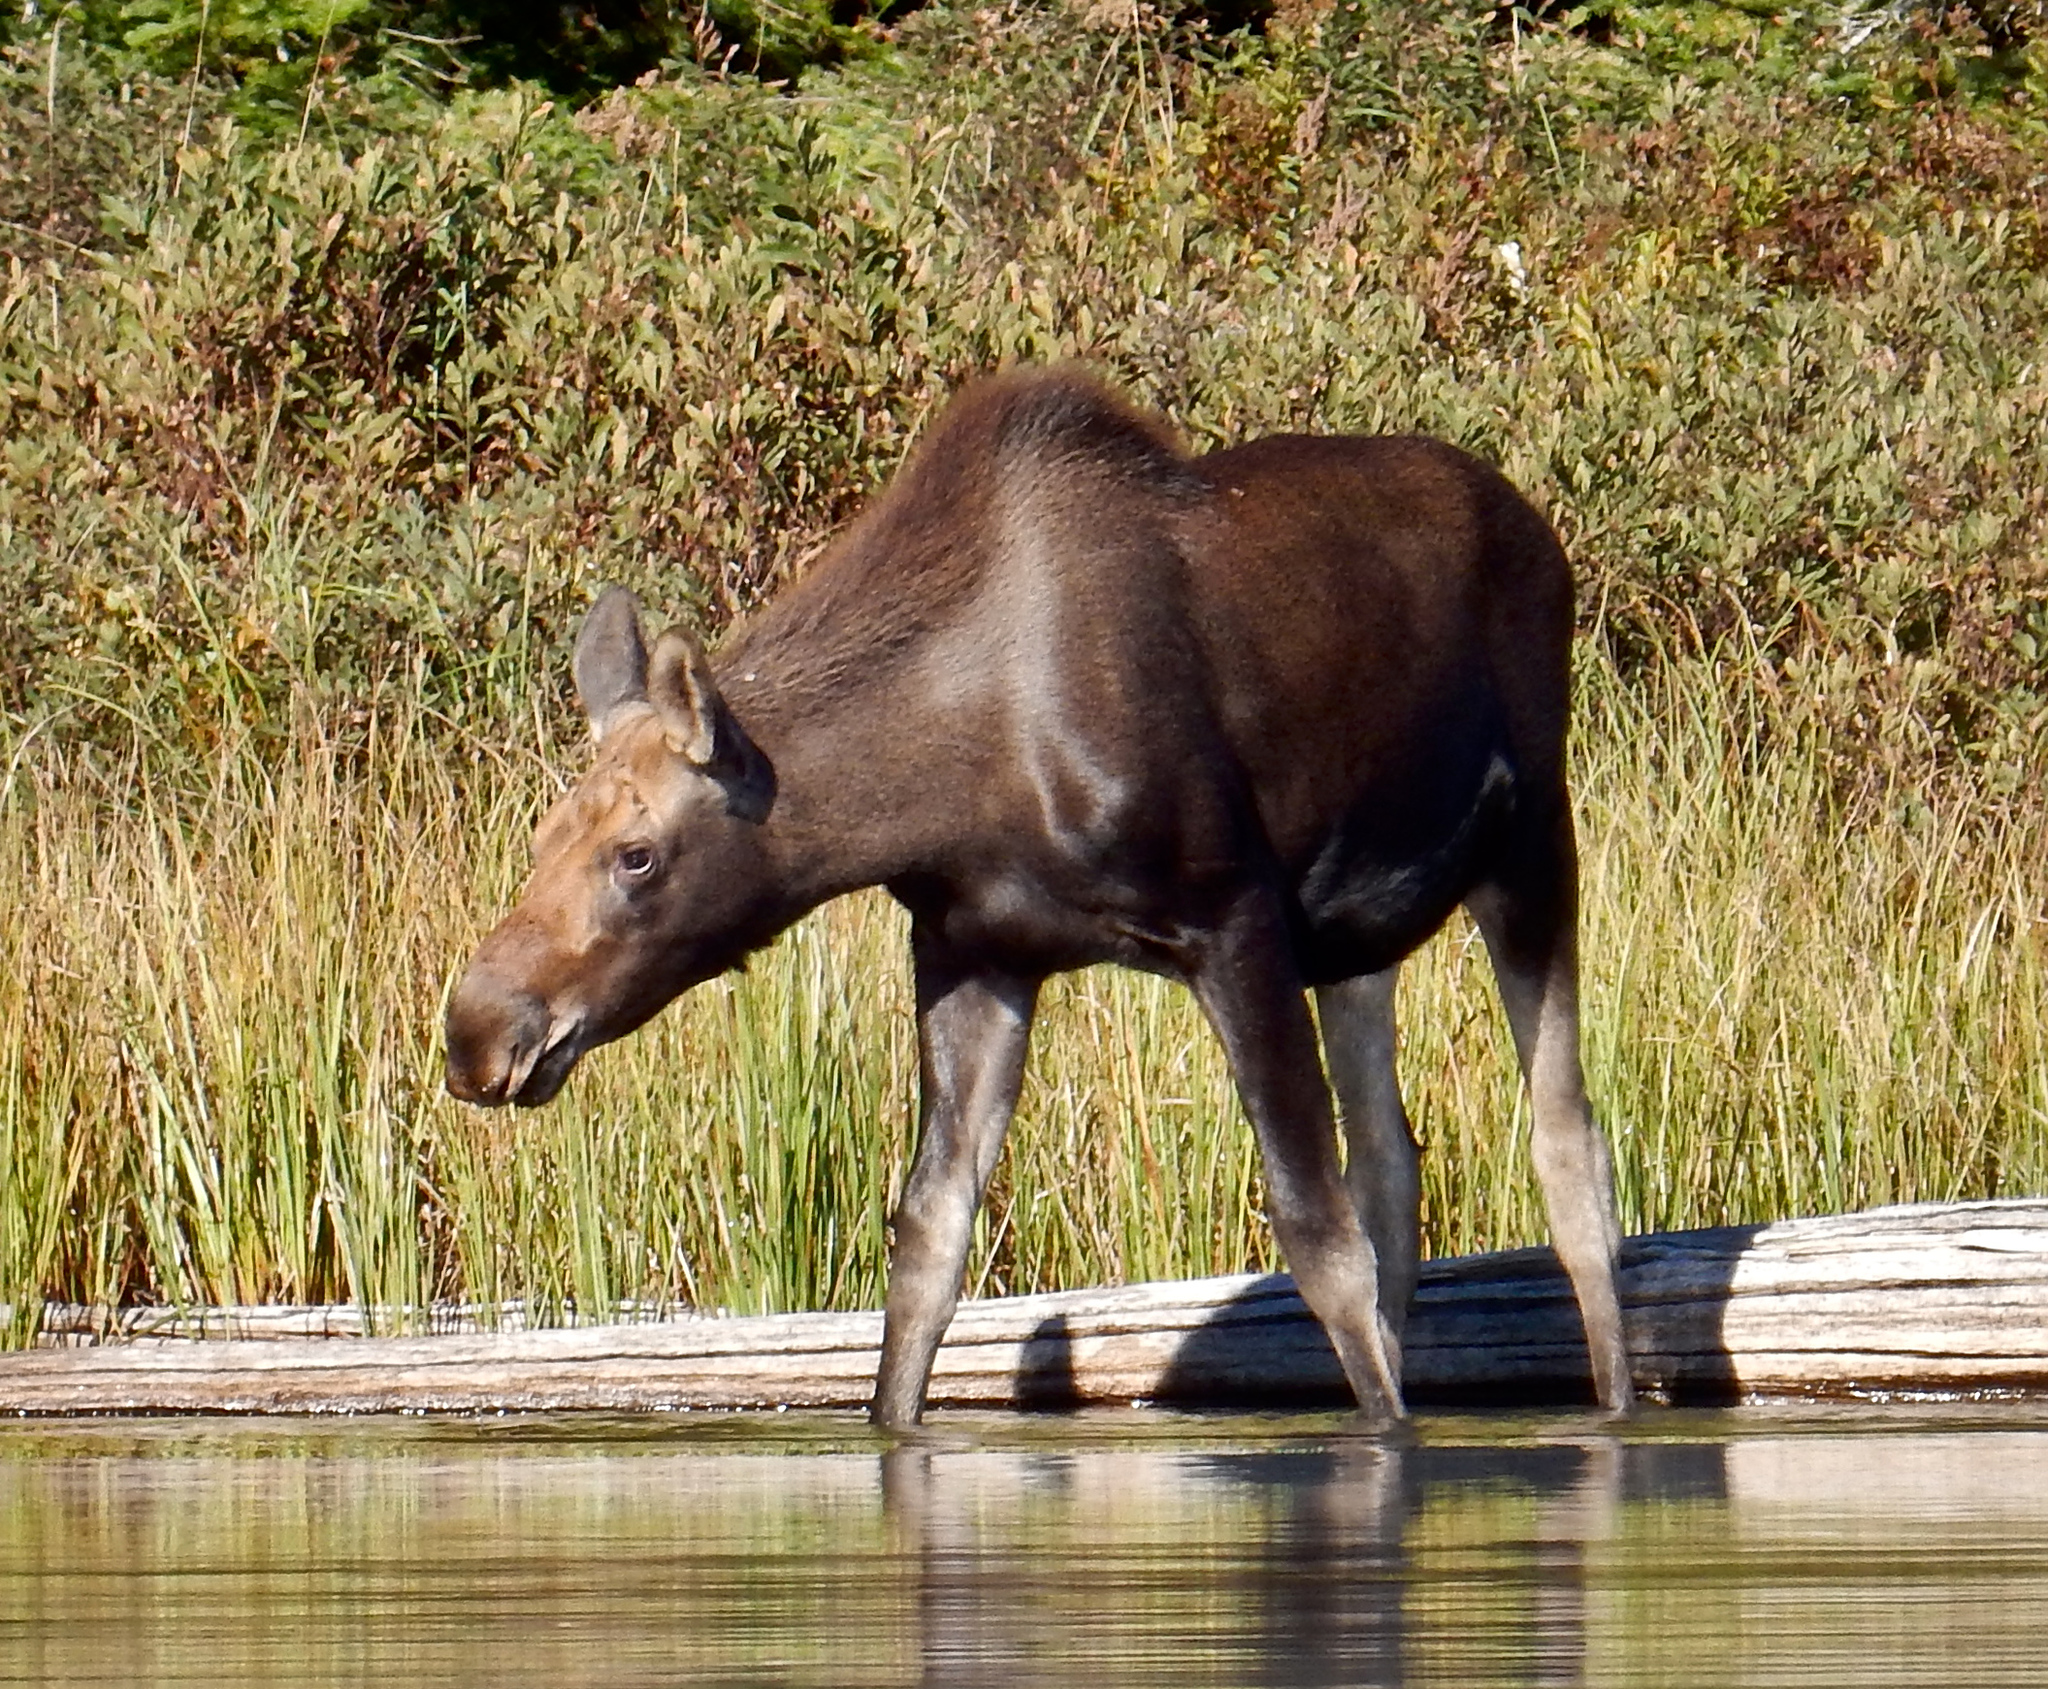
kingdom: Animalia
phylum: Chordata
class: Mammalia
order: Artiodactyla
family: Cervidae
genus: Alces
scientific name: Alces alces
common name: Moose
